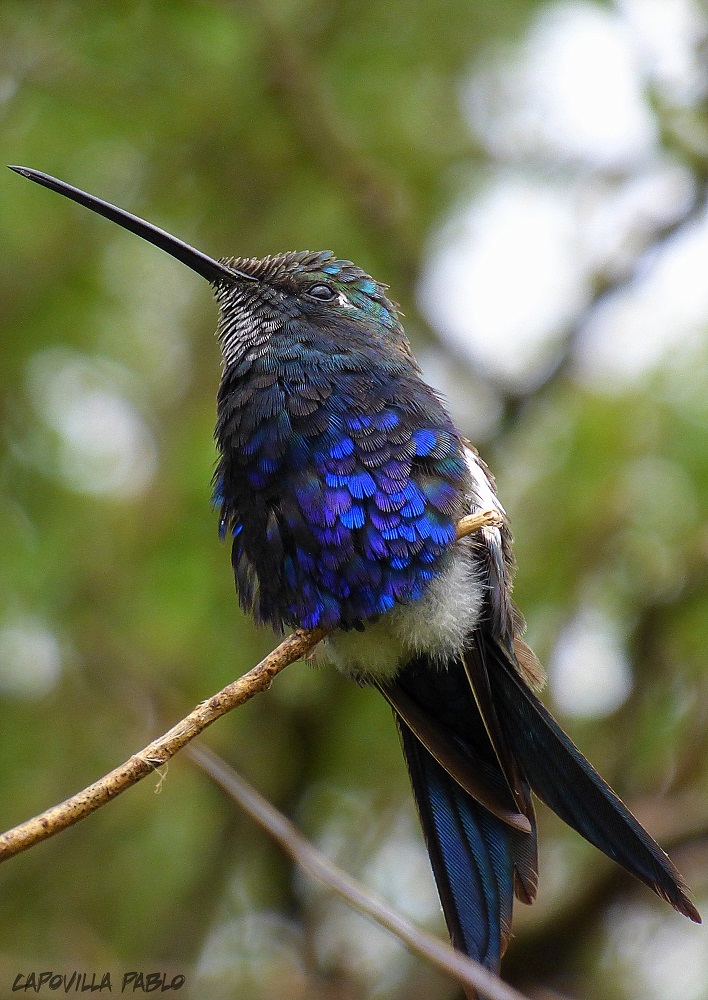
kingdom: Animalia
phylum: Chordata
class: Aves
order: Apodiformes
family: Trochilidae
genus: Heliomaster
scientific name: Heliomaster furcifer
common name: Blue-tufted starthroat
